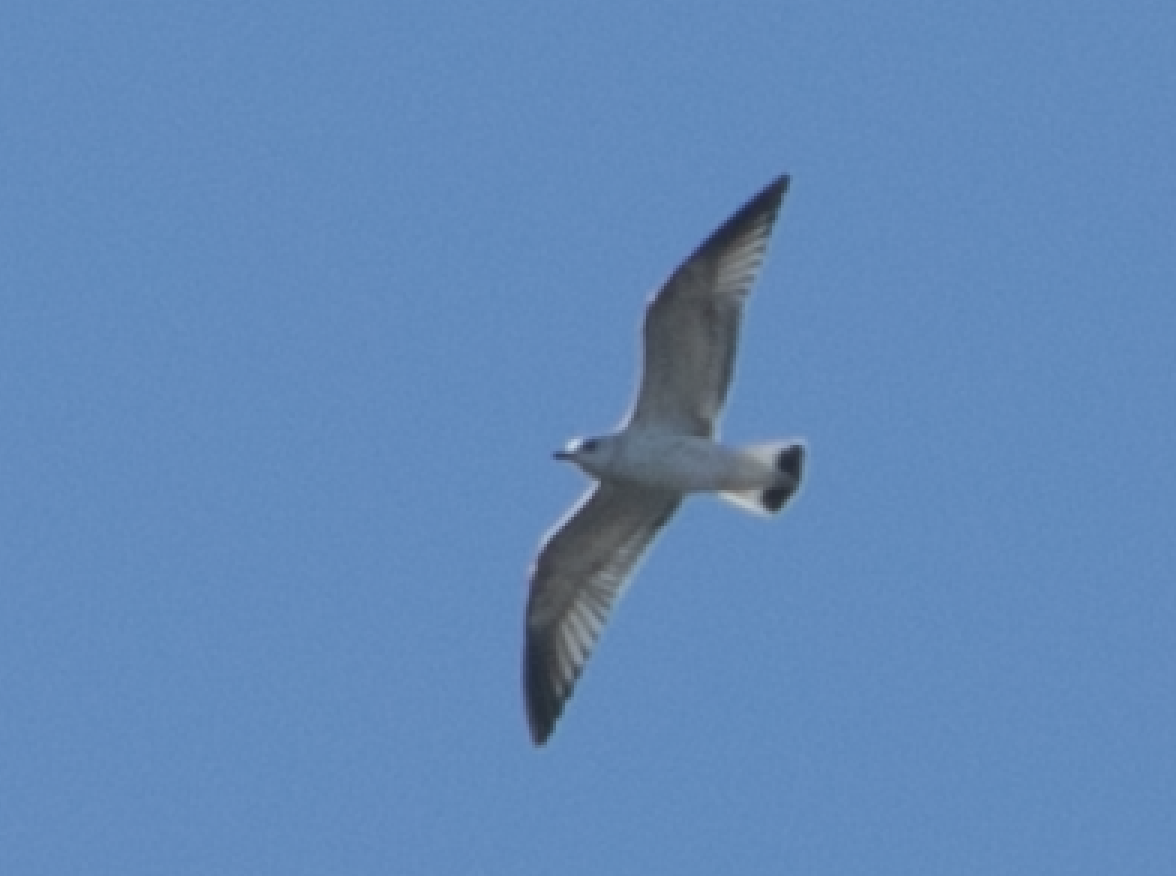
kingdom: Animalia
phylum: Chordata
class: Aves
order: Charadriiformes
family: Laridae
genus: Larus
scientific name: Larus canus
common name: Mew gull
